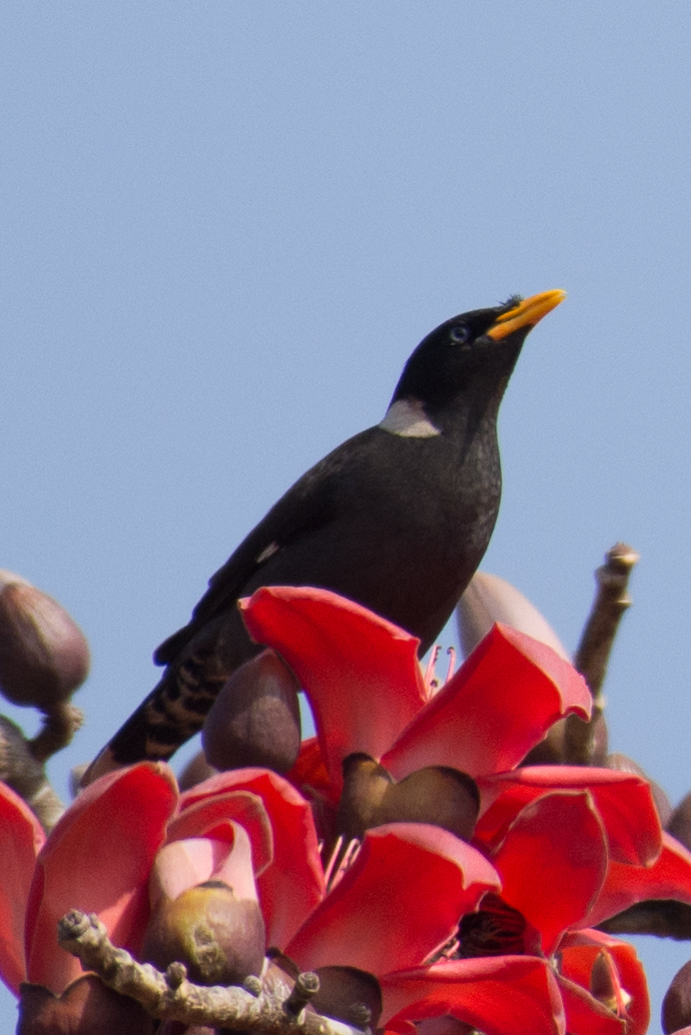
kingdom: Animalia
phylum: Chordata
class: Aves
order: Passeriformes
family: Sturnidae
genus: Acridotheres
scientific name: Acridotheres albocinctus
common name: Collared myna
